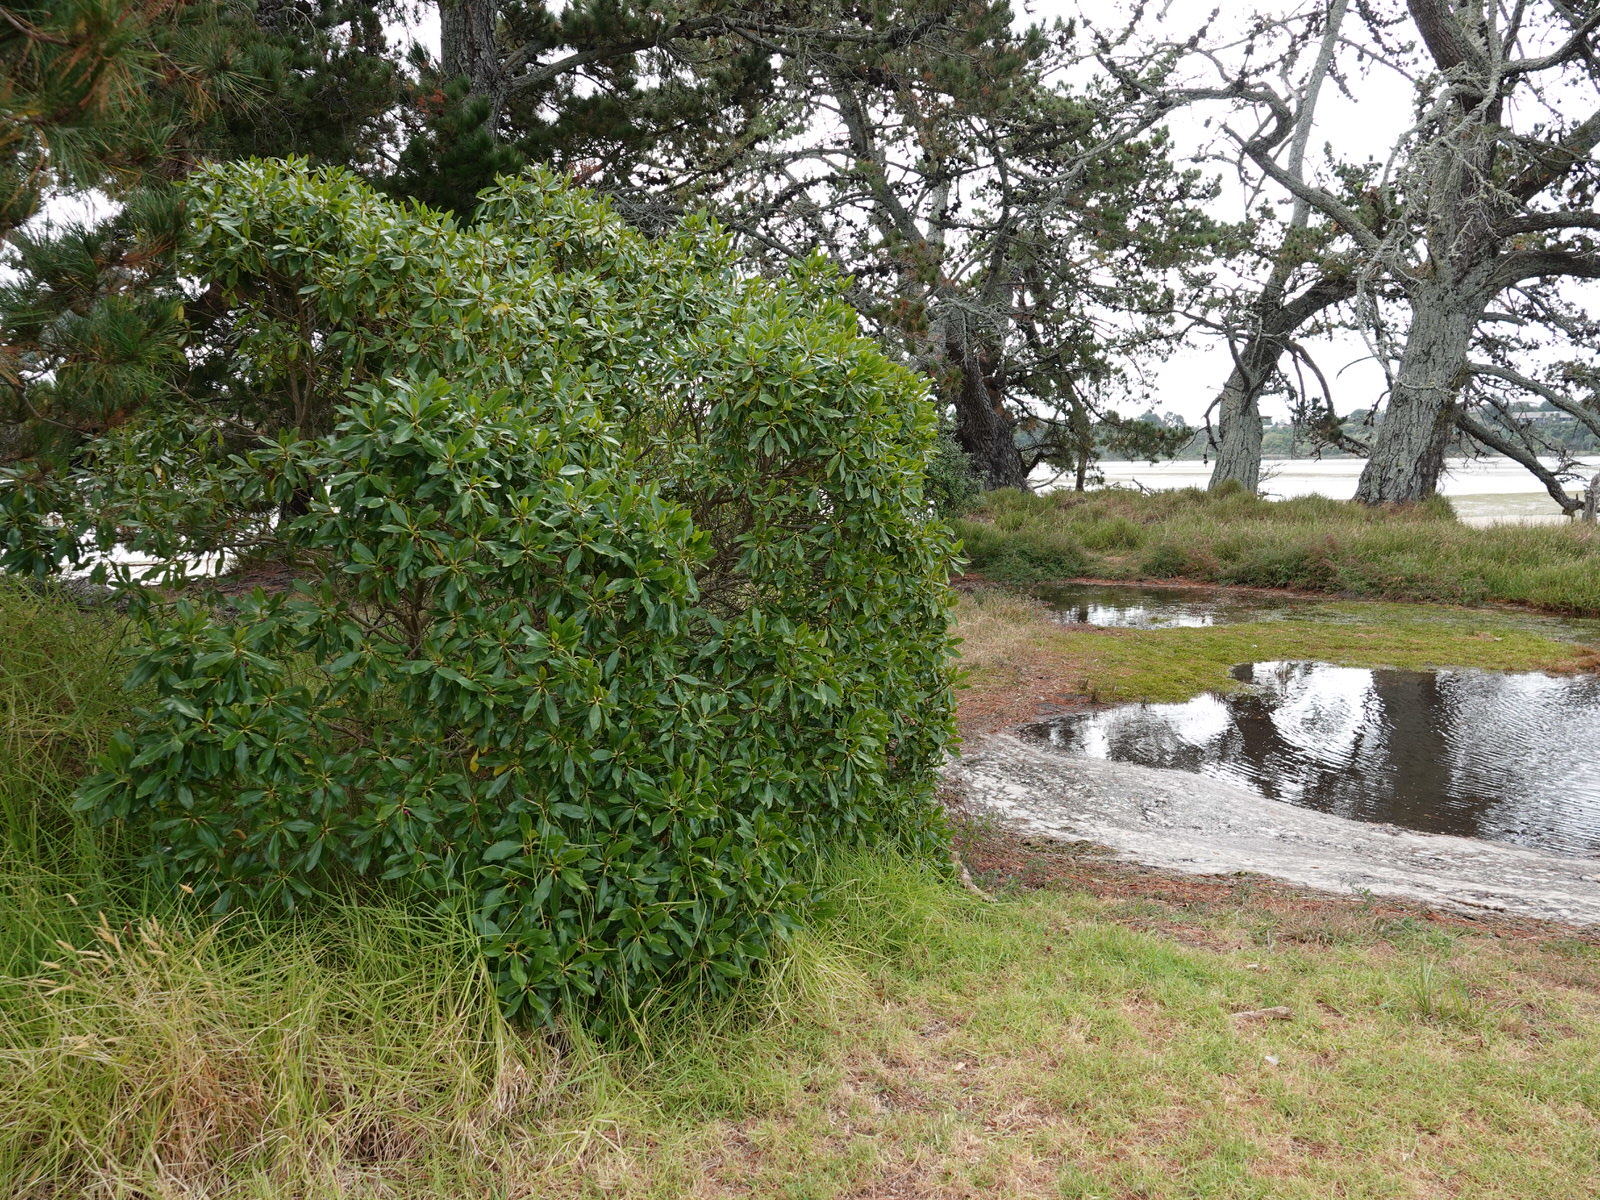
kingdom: Plantae
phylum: Tracheophyta
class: Magnoliopsida
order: Lamiales
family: Scrophulariaceae
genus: Myoporum
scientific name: Myoporum laetum
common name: Ngaio tree
